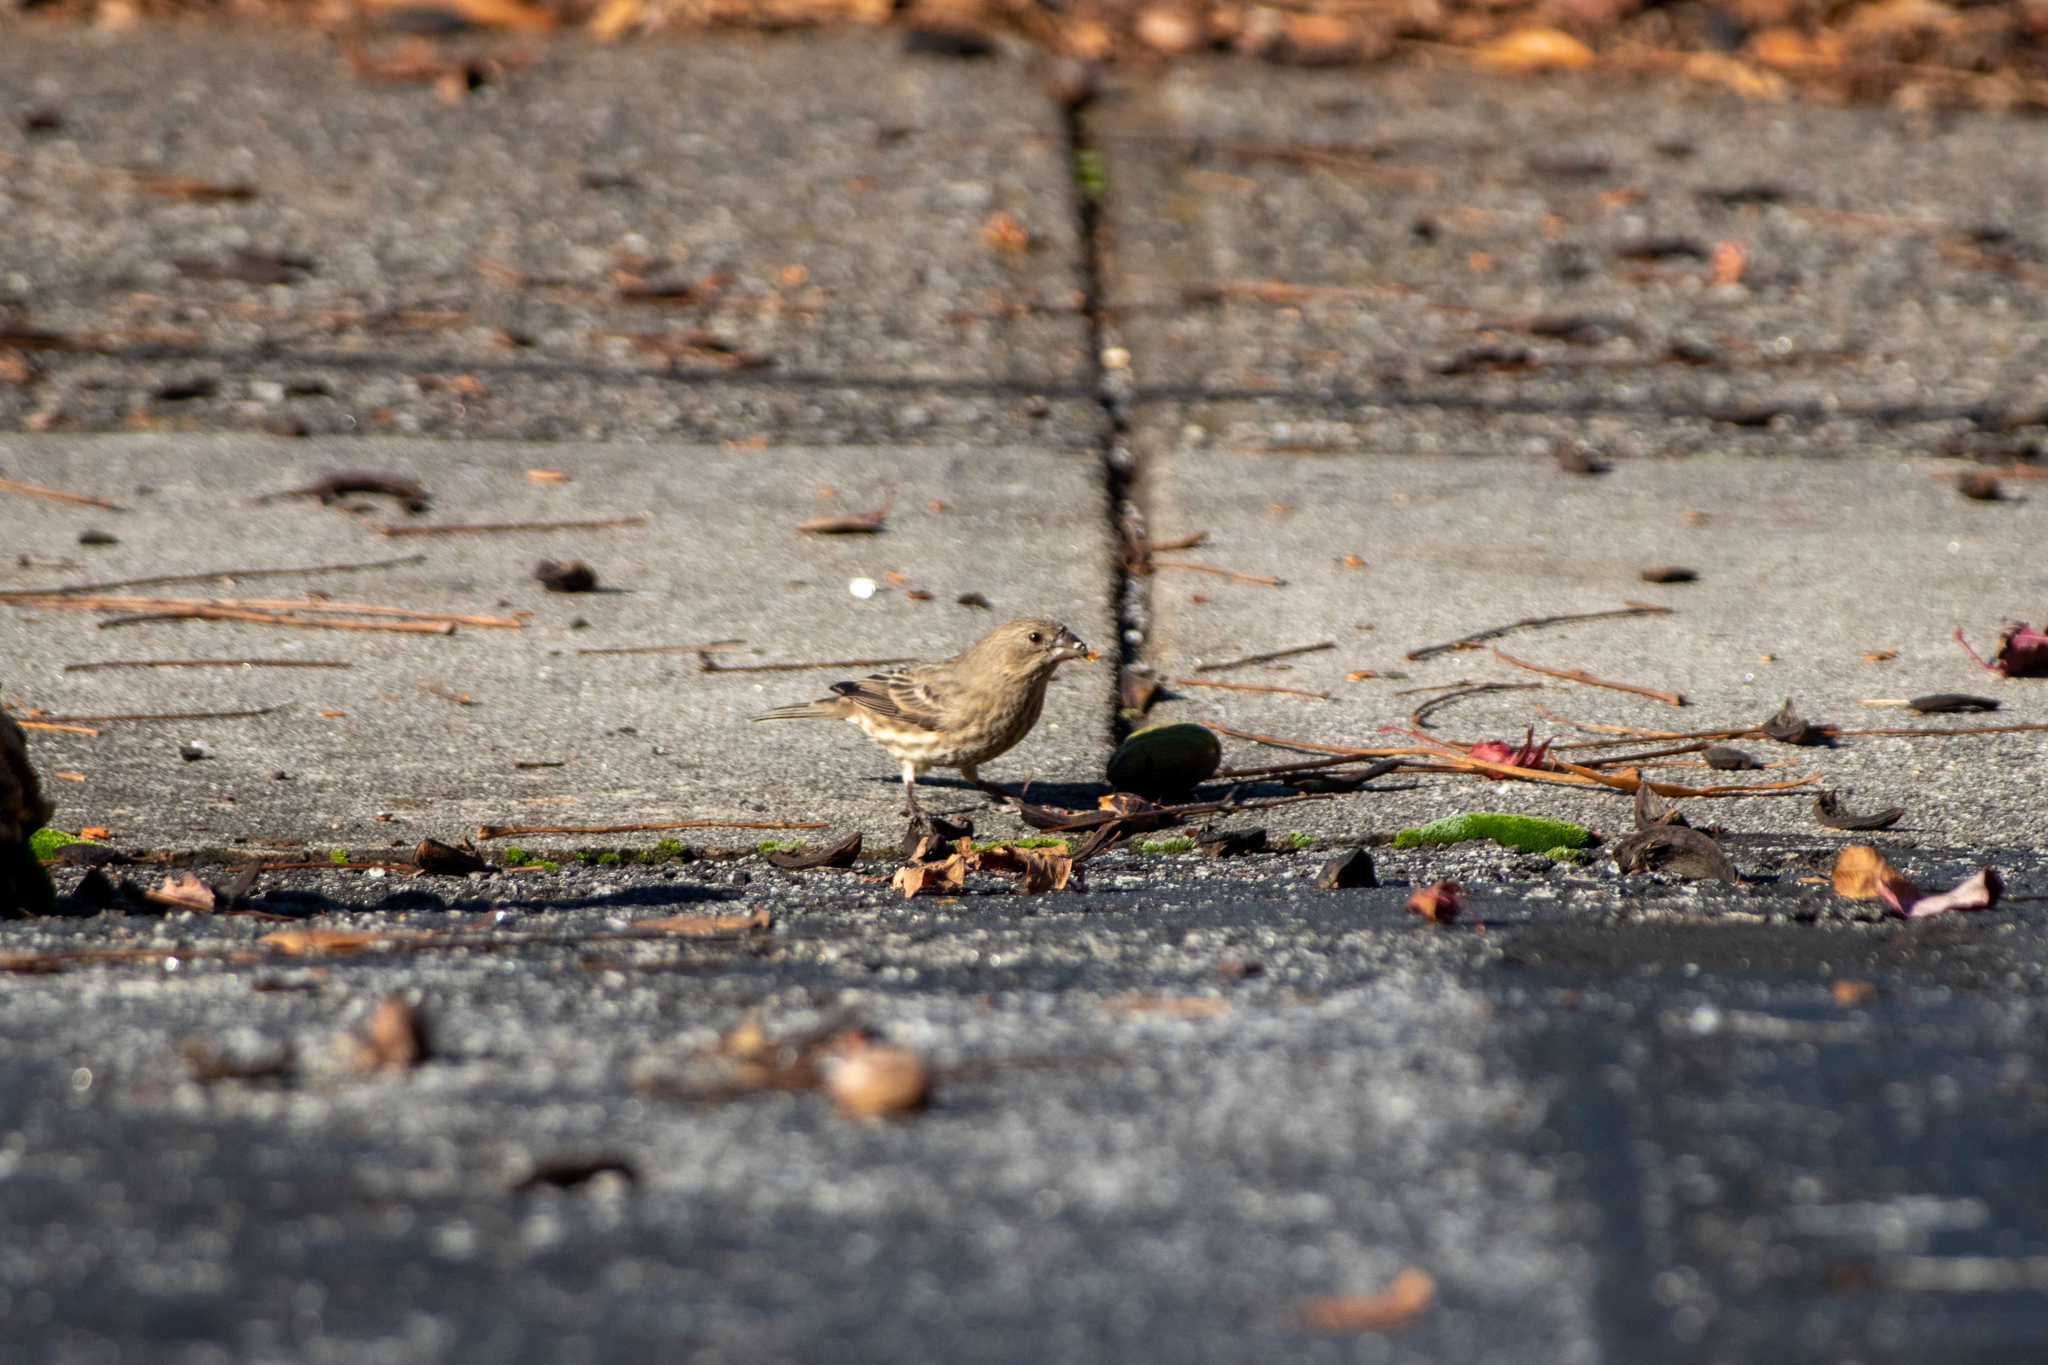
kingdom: Animalia
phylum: Chordata
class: Aves
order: Passeriformes
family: Fringillidae
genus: Haemorhous
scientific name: Haemorhous mexicanus
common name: House finch
